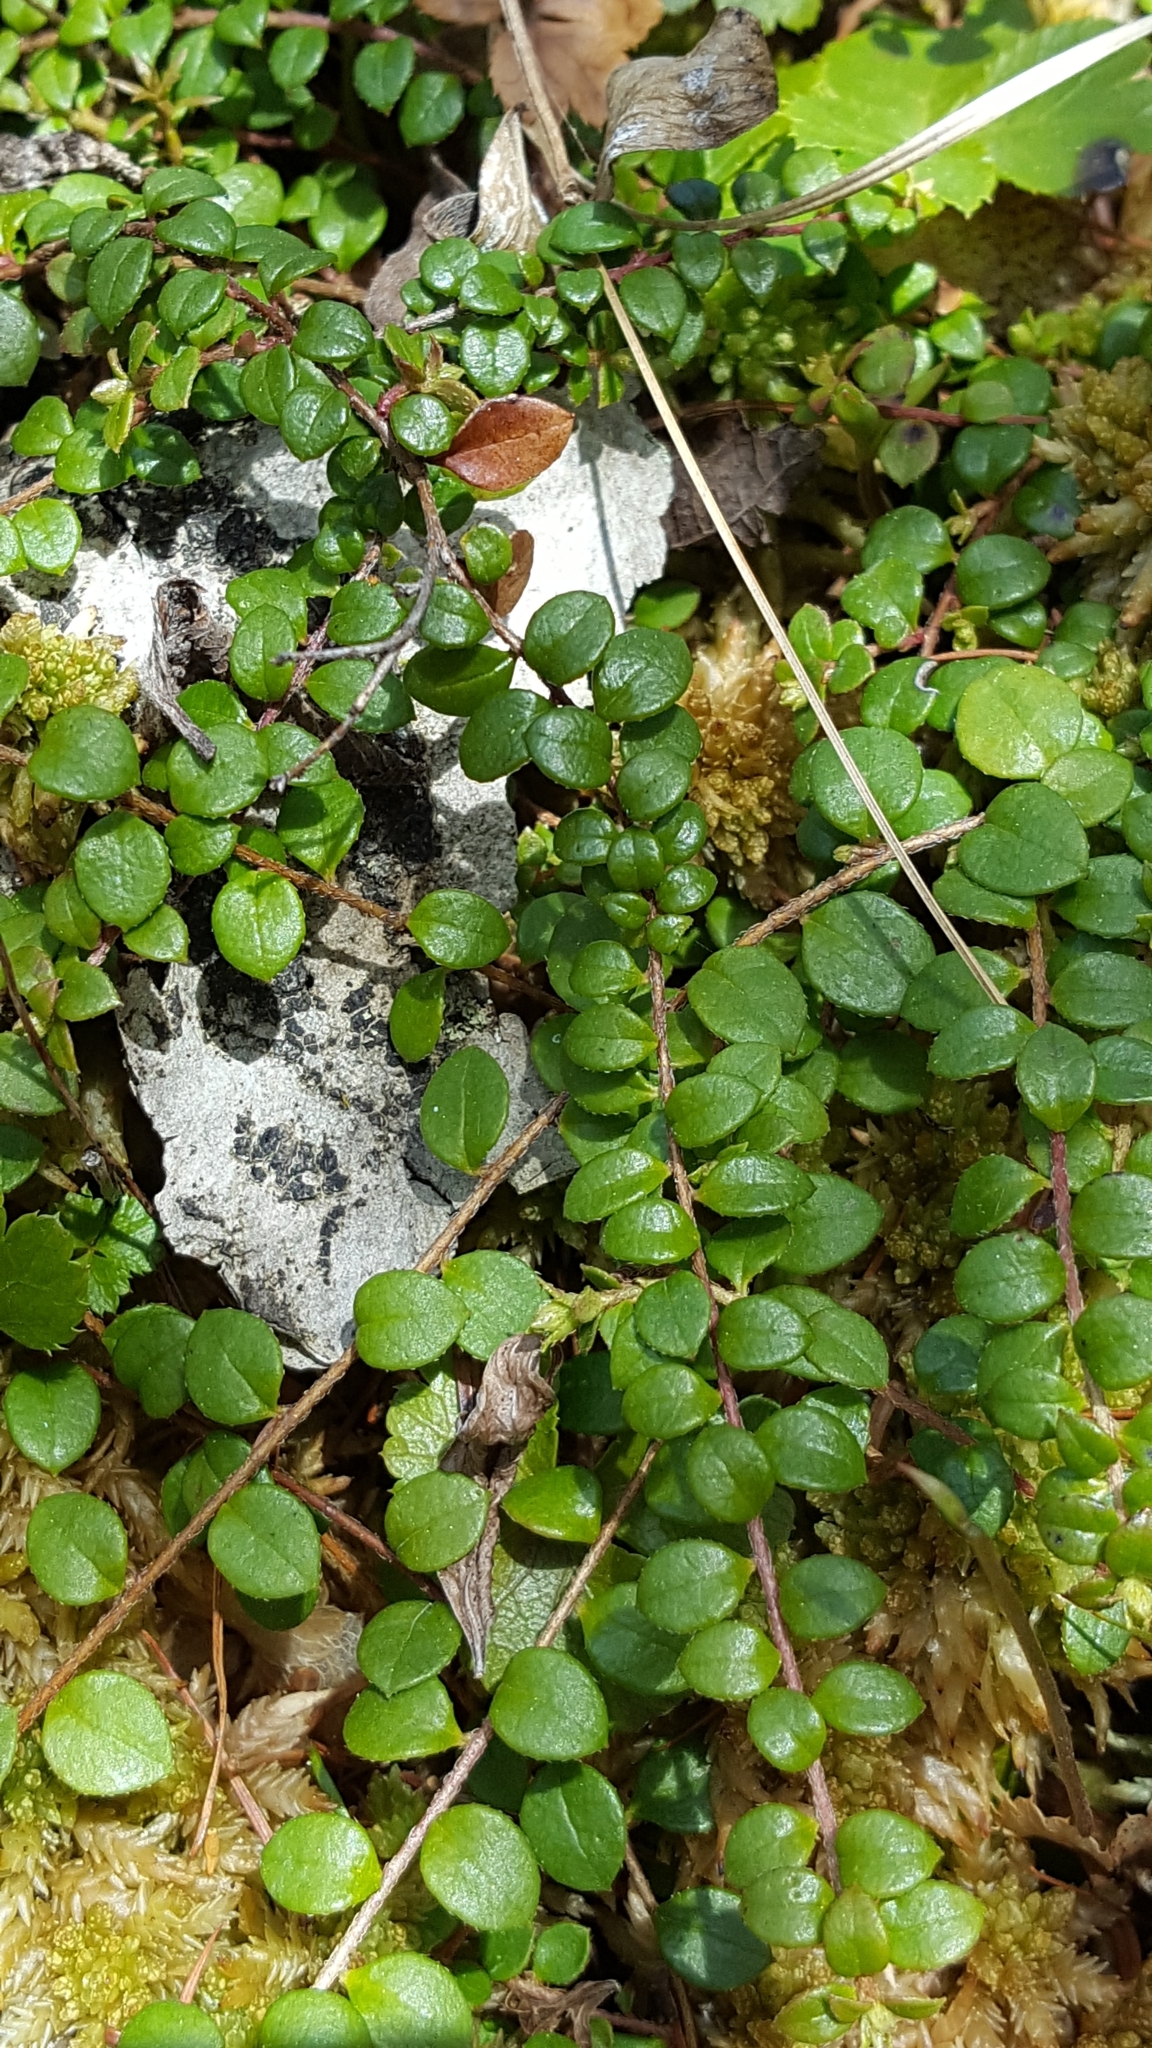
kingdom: Plantae
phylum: Tracheophyta
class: Magnoliopsida
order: Ericales
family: Ericaceae
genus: Gaultheria
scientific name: Gaultheria hispidula
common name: Cancer wintergreen
